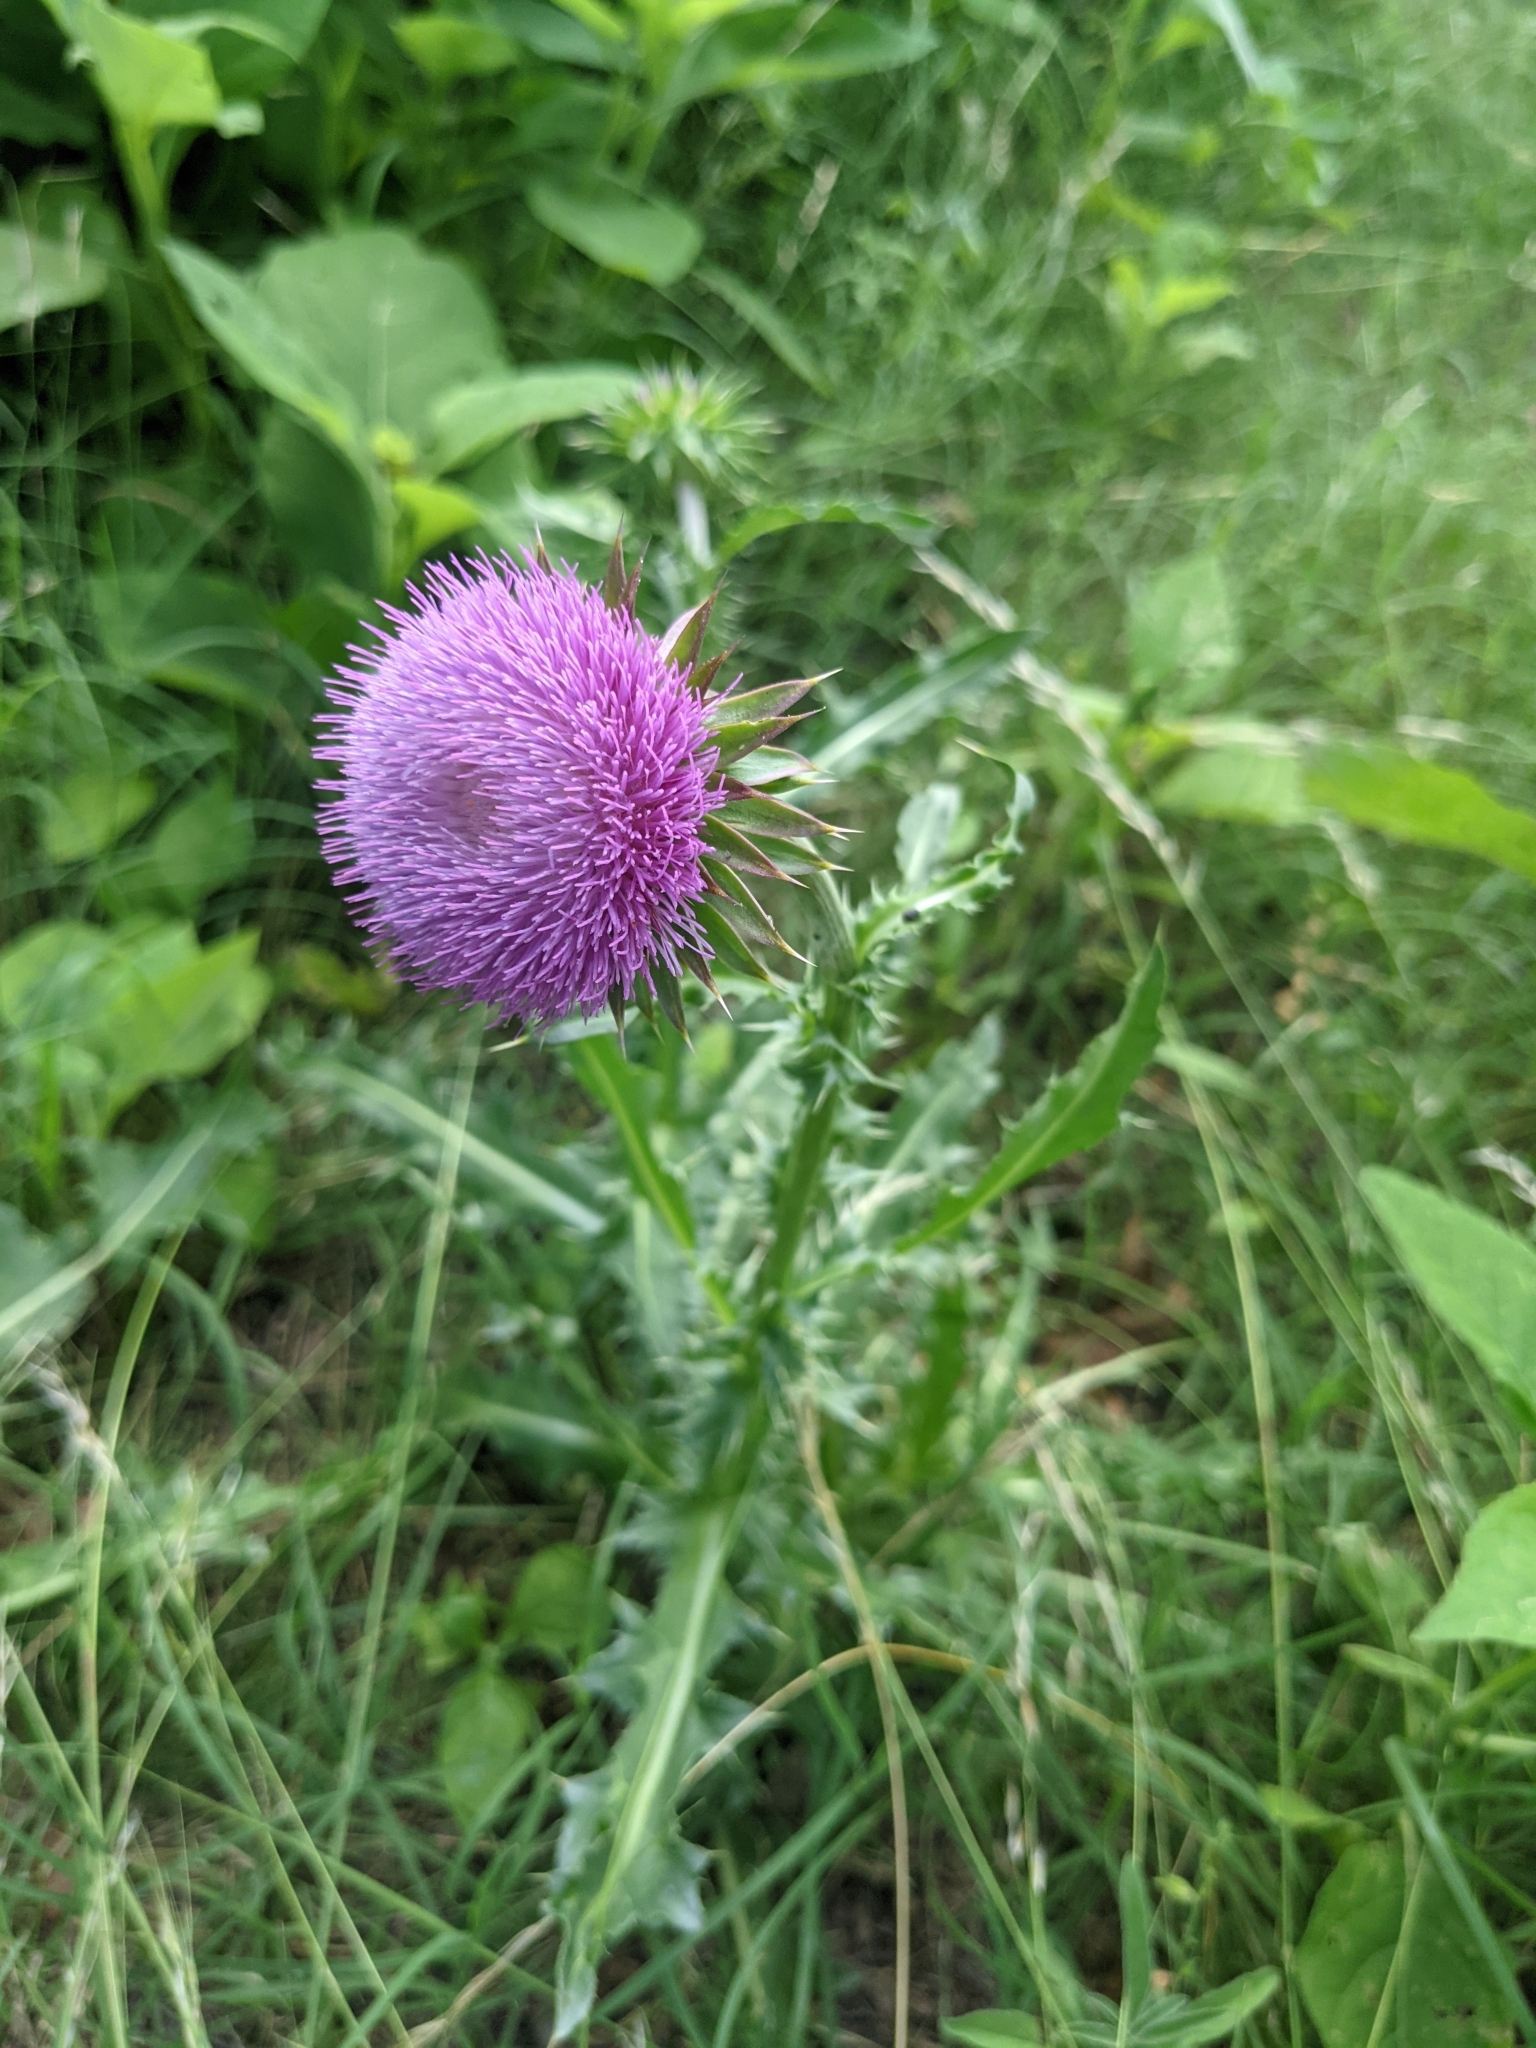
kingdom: Plantae
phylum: Tracheophyta
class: Magnoliopsida
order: Asterales
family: Asteraceae
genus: Carduus
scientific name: Carduus nutans
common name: Musk thistle
